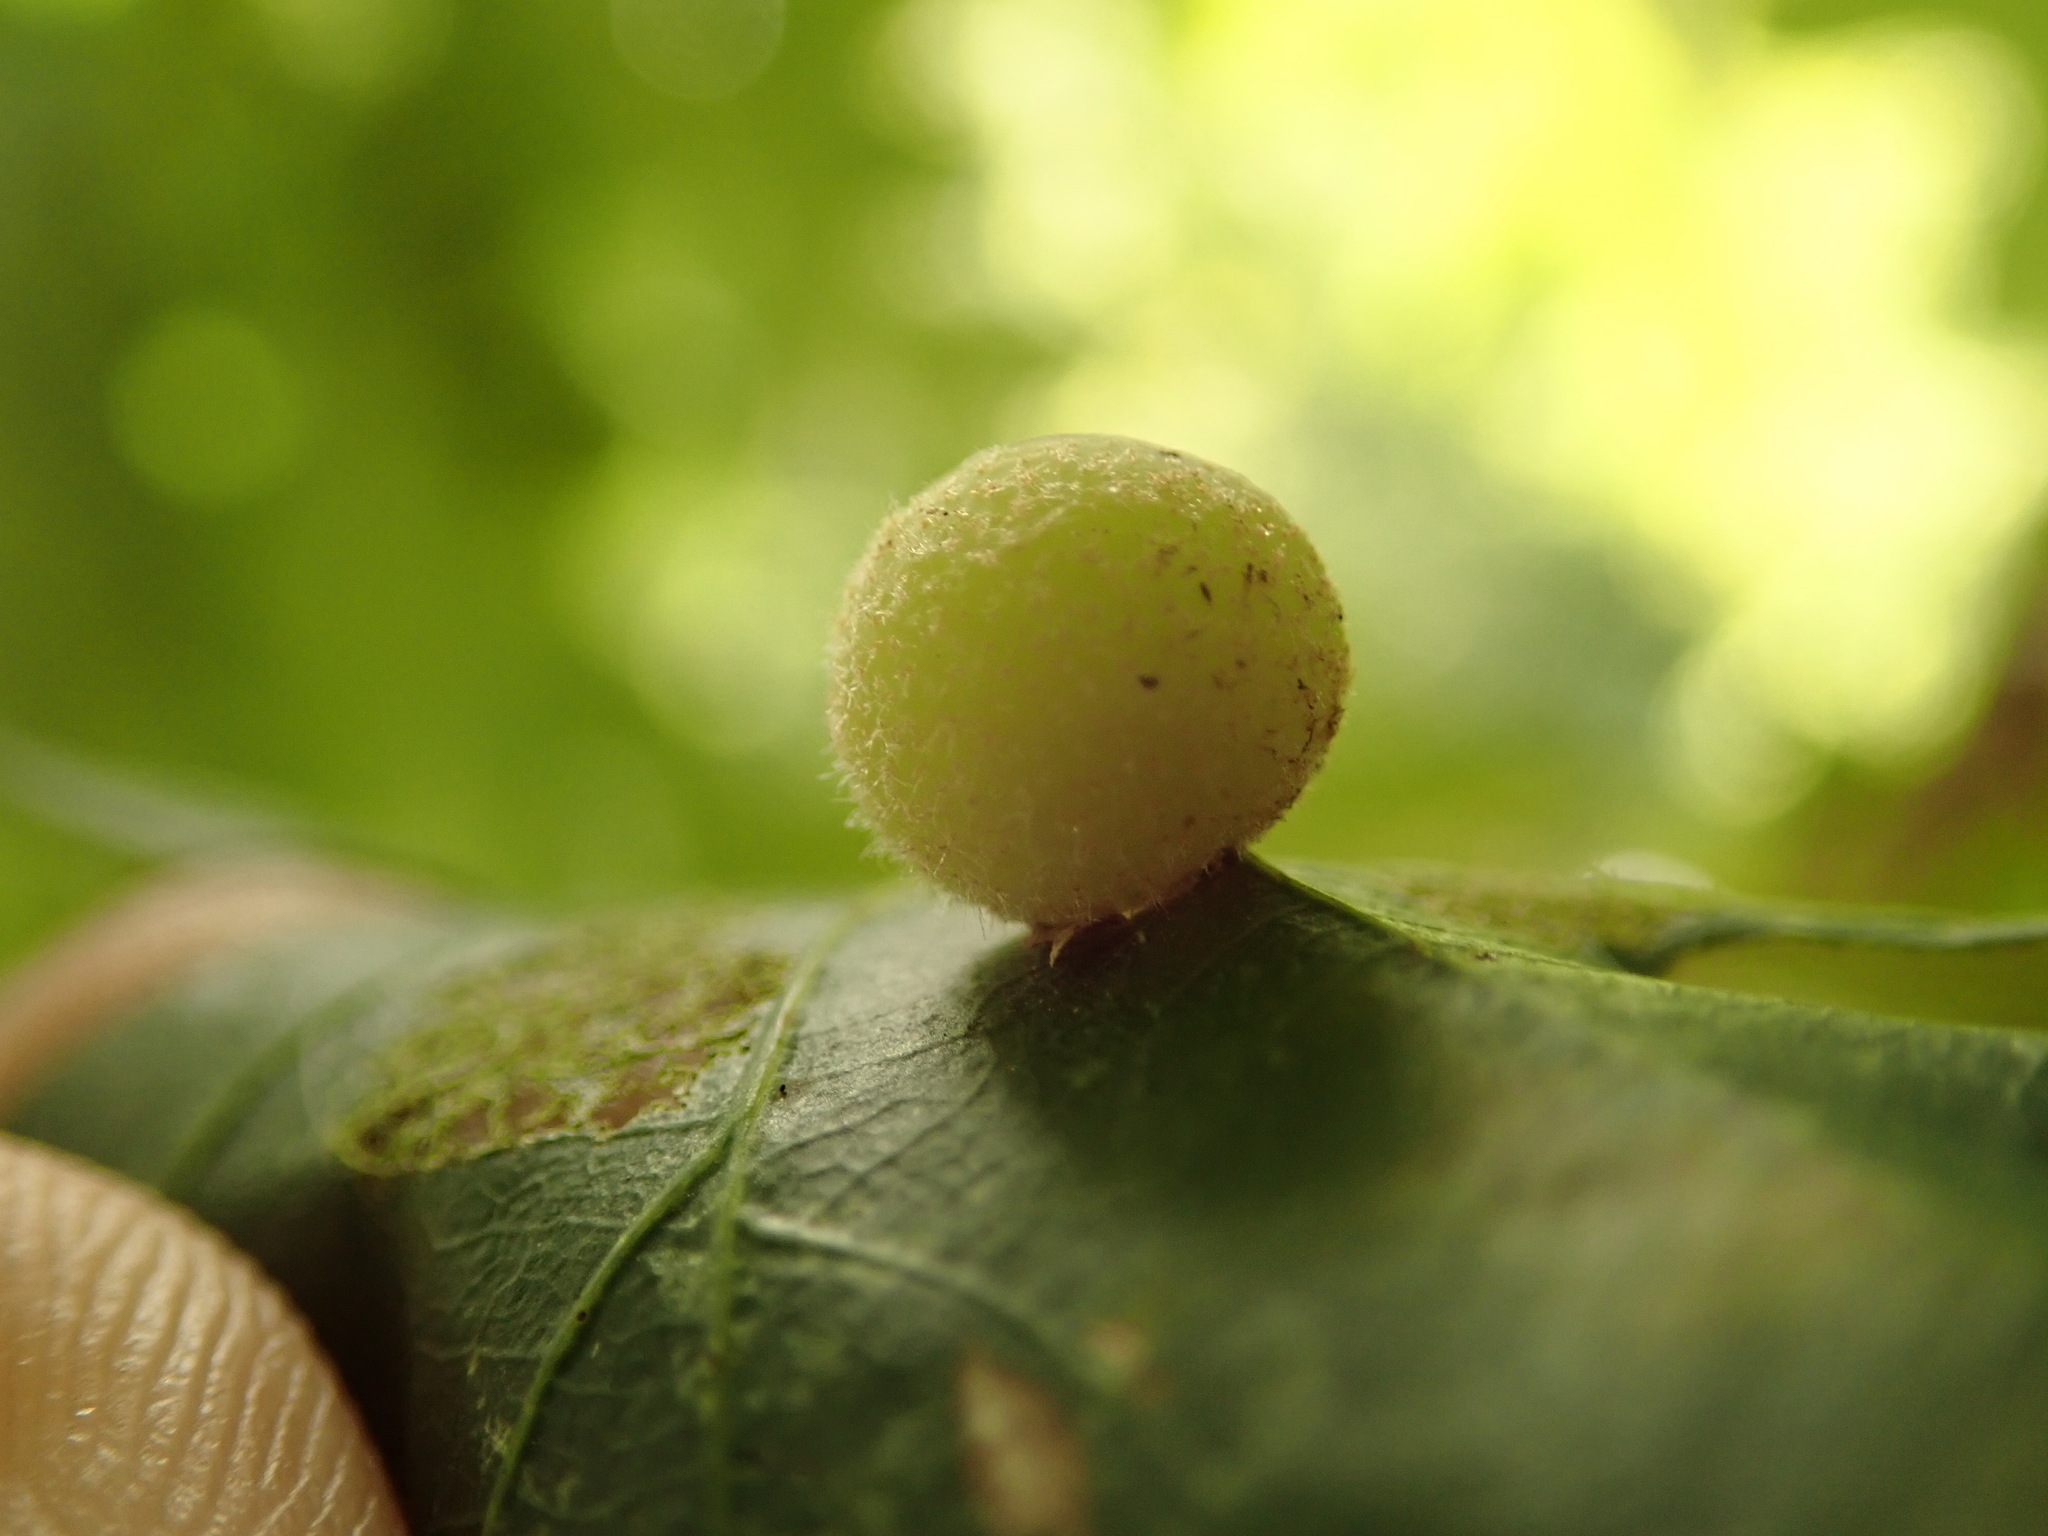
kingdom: Animalia
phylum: Arthropoda
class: Insecta
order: Hymenoptera
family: Cynipidae
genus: Philonix
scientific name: Philonix fulvicollis
